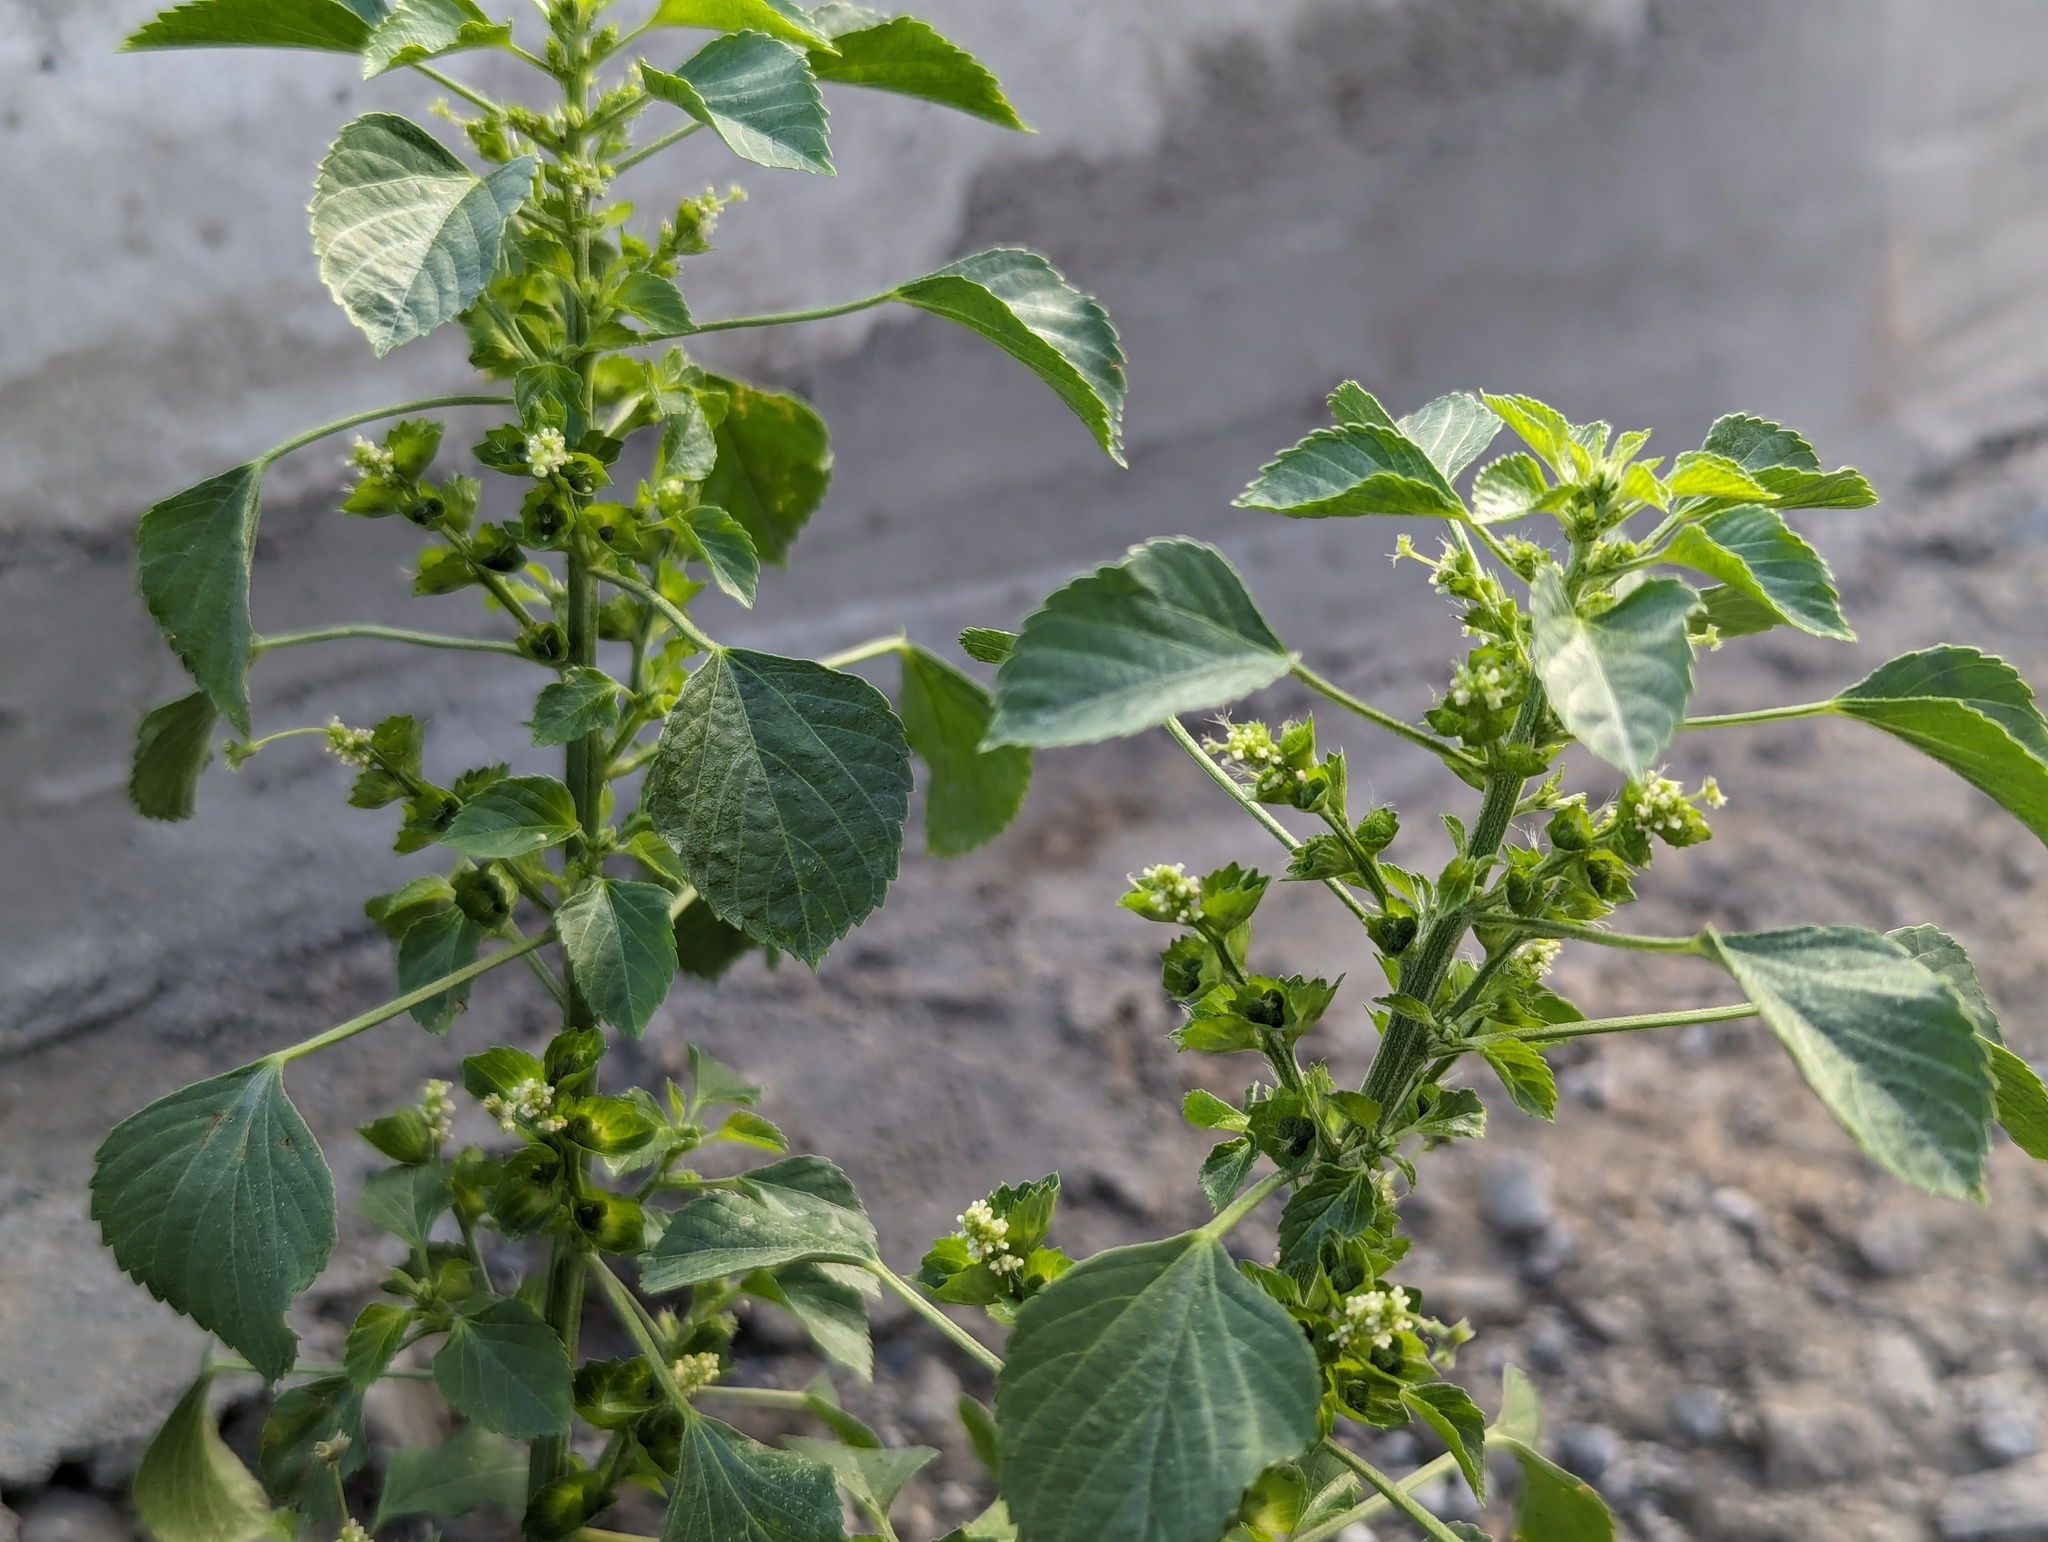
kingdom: Plantae
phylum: Tracheophyta
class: Magnoliopsida
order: Malpighiales
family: Euphorbiaceae
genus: Acalypha
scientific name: Acalypha indica
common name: Indian acalypha
